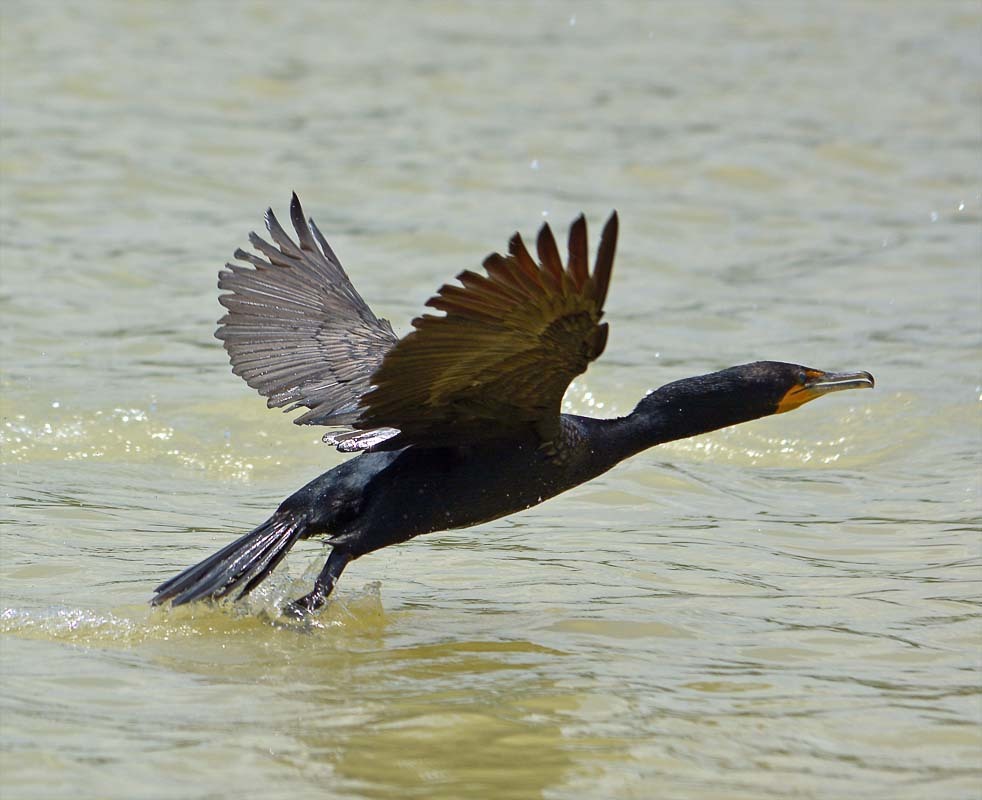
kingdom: Animalia
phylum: Chordata
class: Aves
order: Suliformes
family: Phalacrocoracidae
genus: Phalacrocorax
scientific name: Phalacrocorax auritus
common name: Double-crested cormorant
